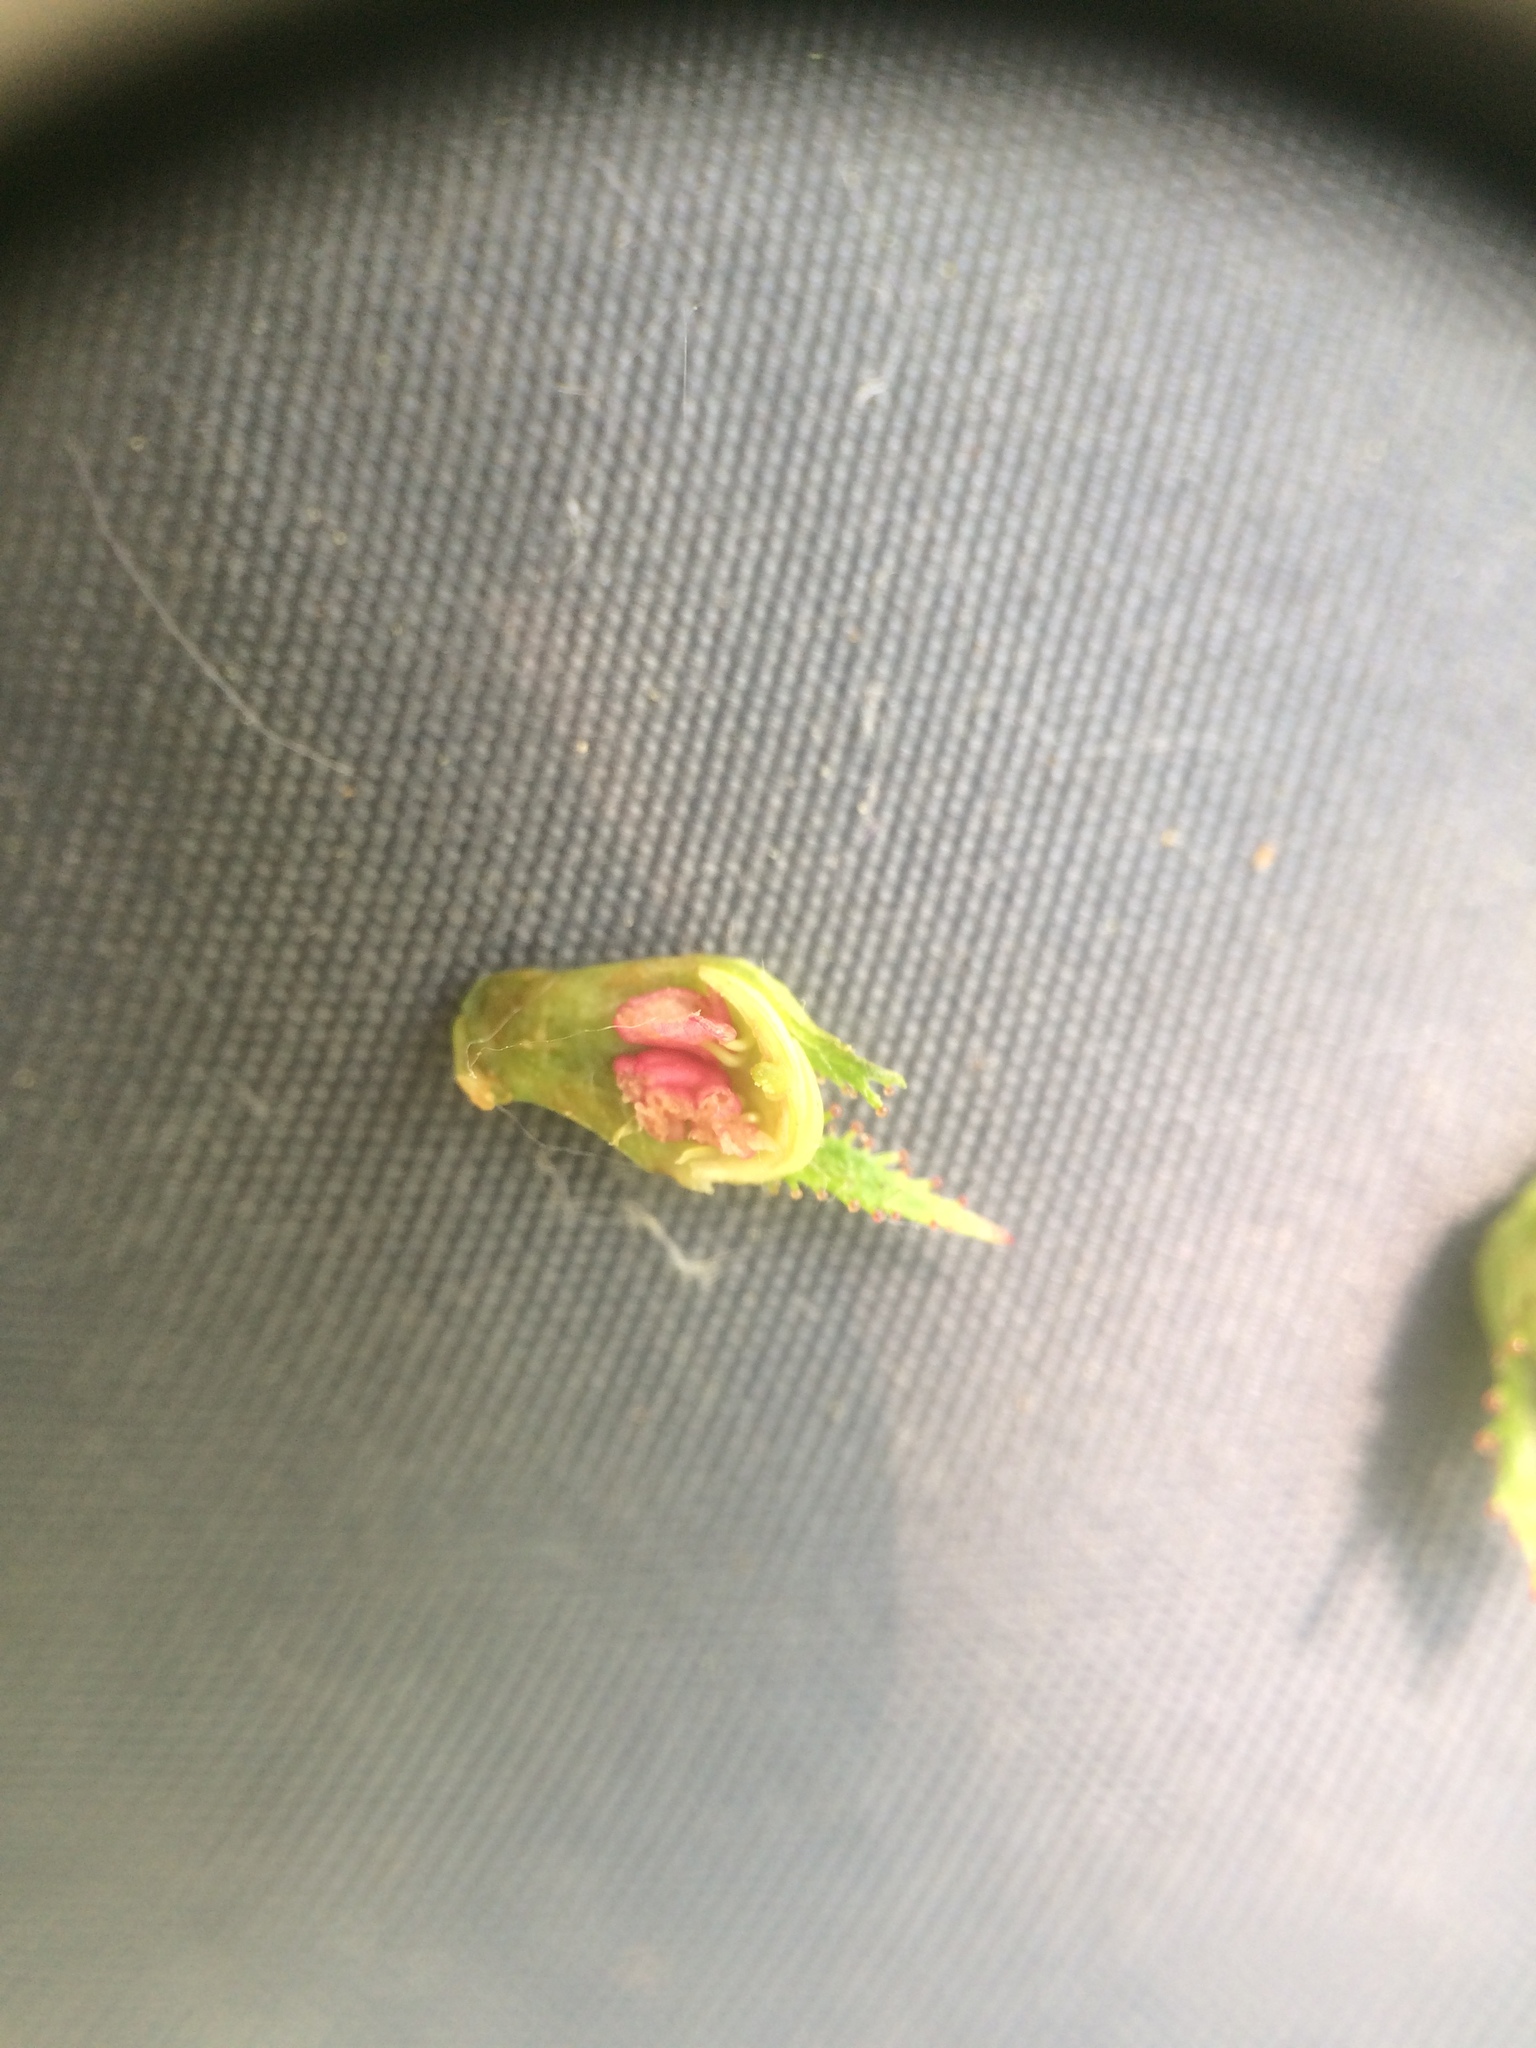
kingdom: Plantae
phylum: Tracheophyta
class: Magnoliopsida
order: Rosales
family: Rosaceae
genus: Crataegus
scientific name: Crataegus macracantha
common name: Large-thorn hawthorn
